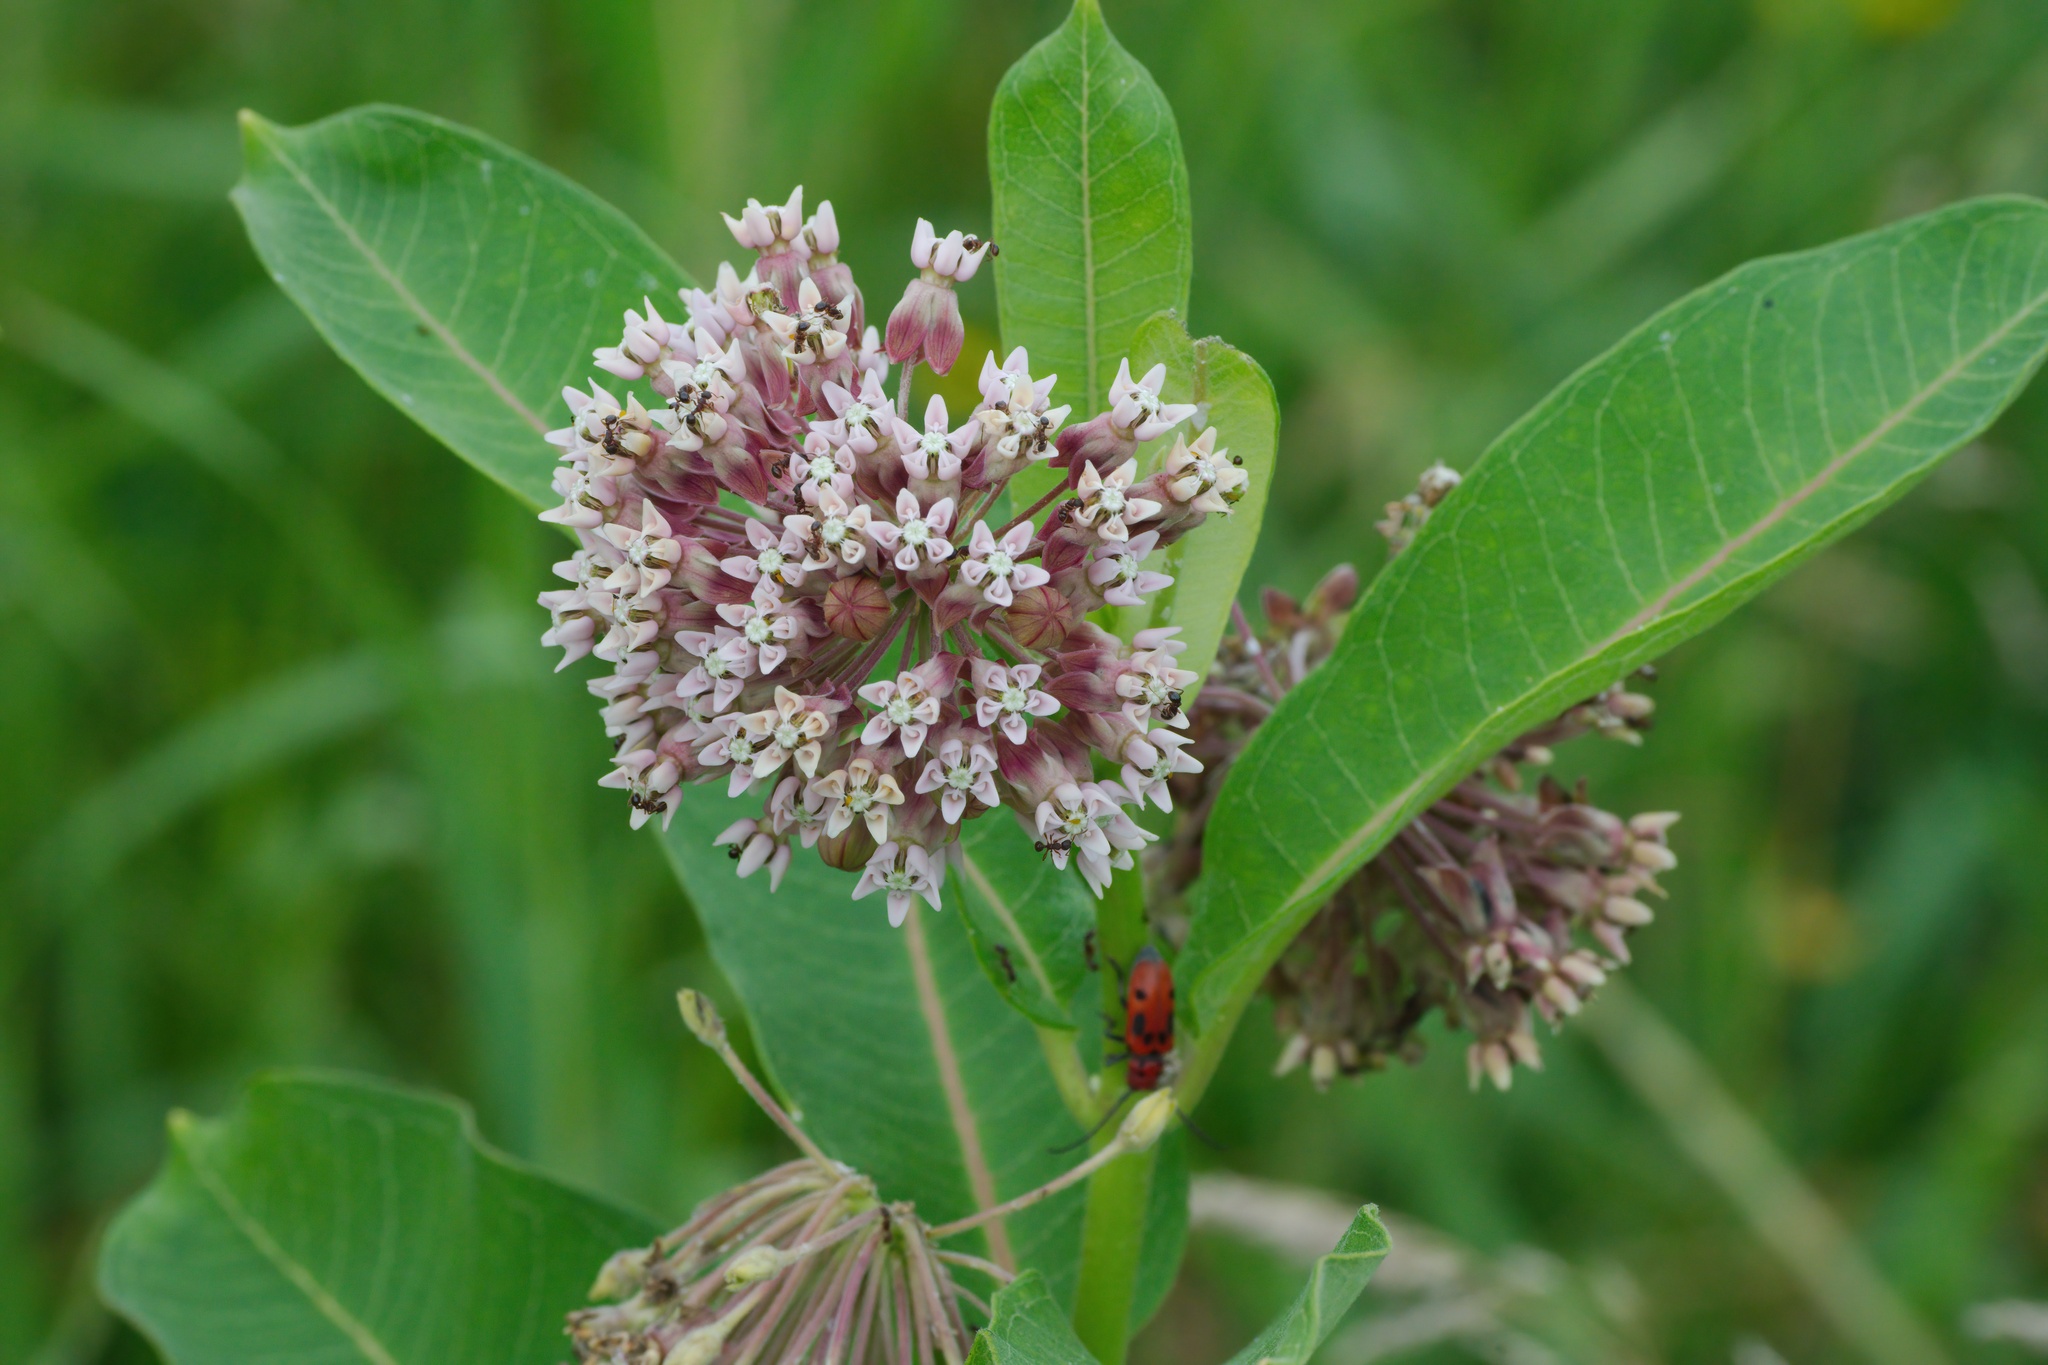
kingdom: Plantae
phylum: Tracheophyta
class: Magnoliopsida
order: Gentianales
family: Apocynaceae
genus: Asclepias
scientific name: Asclepias syriaca
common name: Common milkweed
